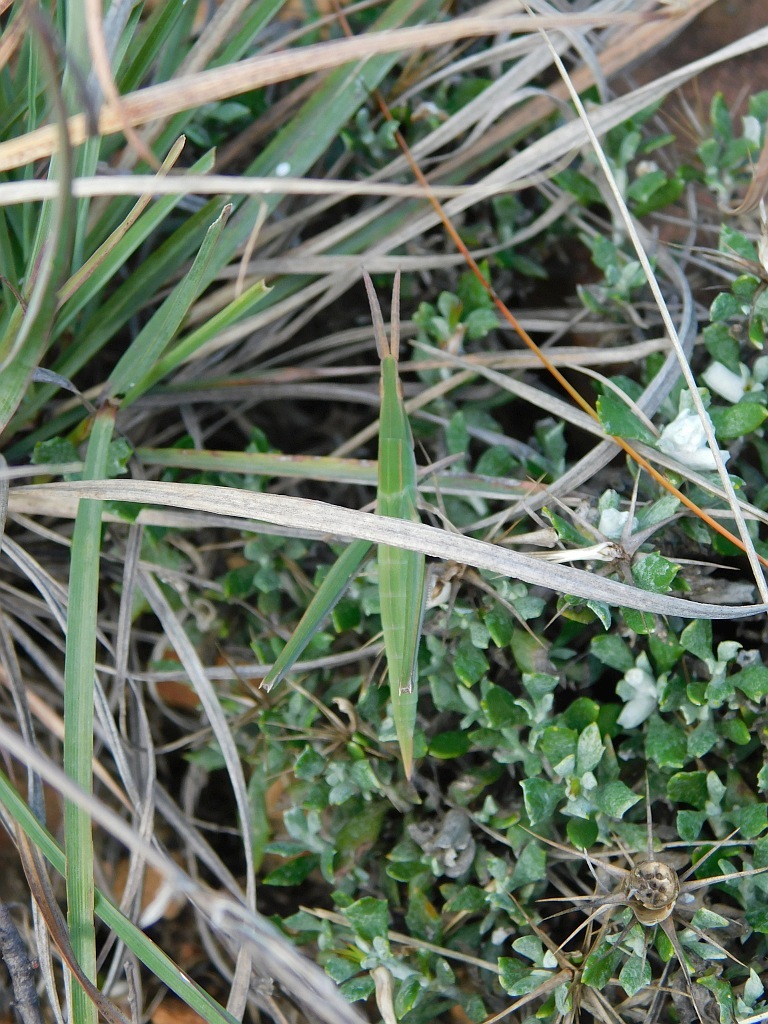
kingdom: Animalia
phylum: Arthropoda
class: Insecta
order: Orthoptera
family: Acrididae
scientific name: Acrididae
